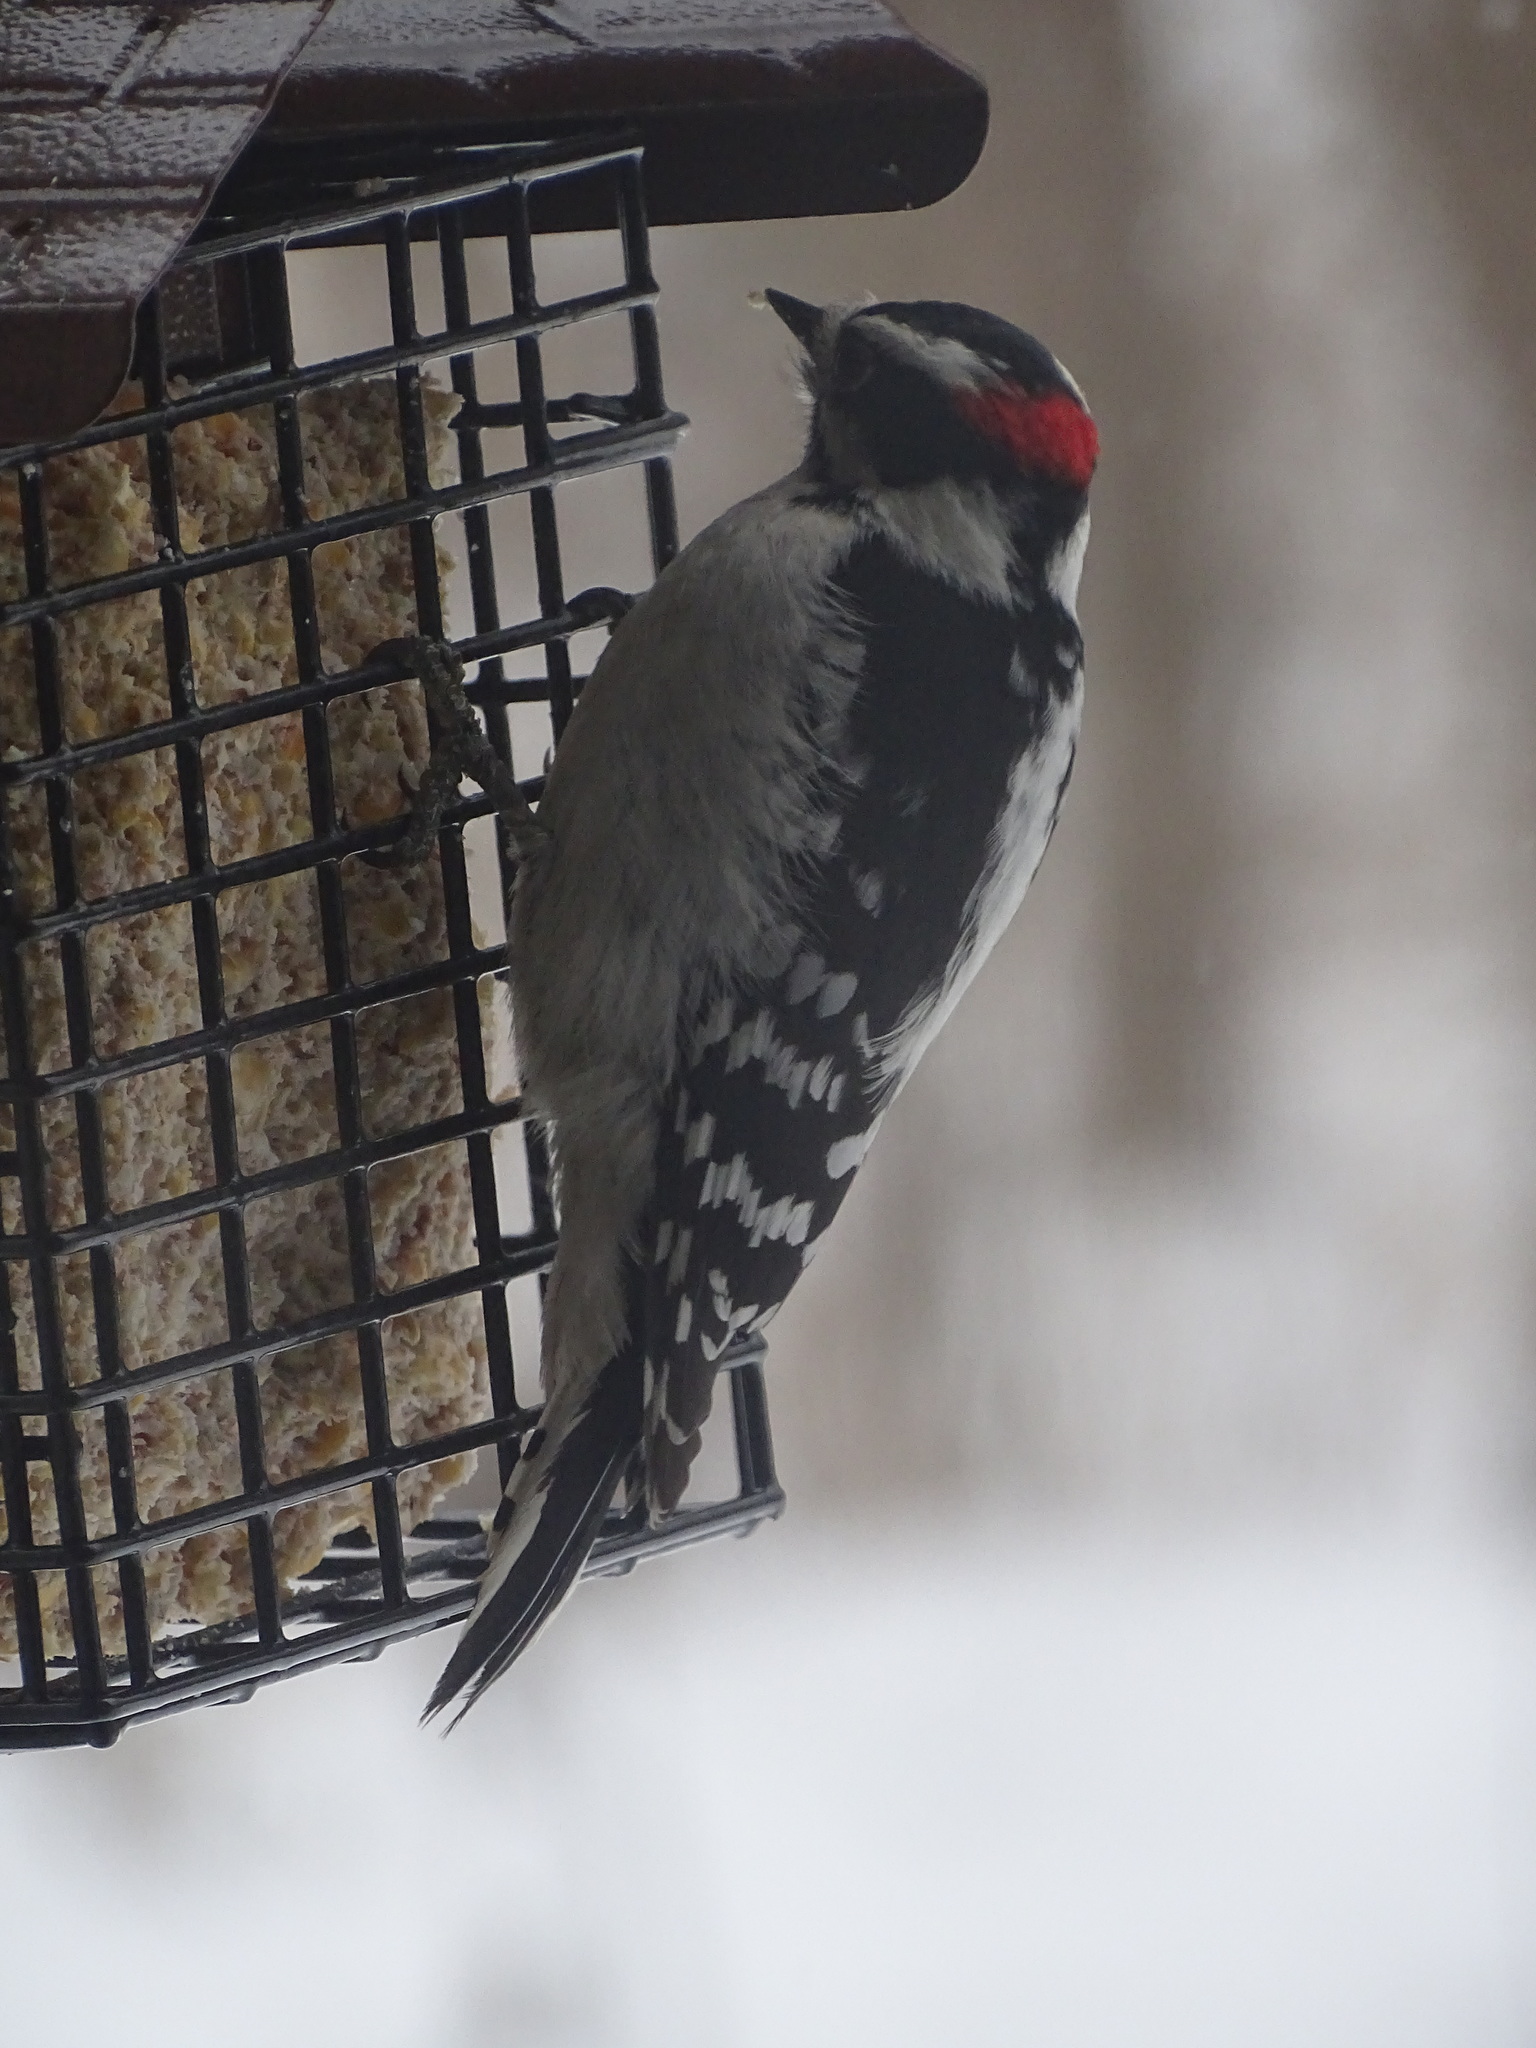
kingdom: Animalia
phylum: Chordata
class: Aves
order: Piciformes
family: Picidae
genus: Dryobates
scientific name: Dryobates pubescens
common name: Downy woodpecker
